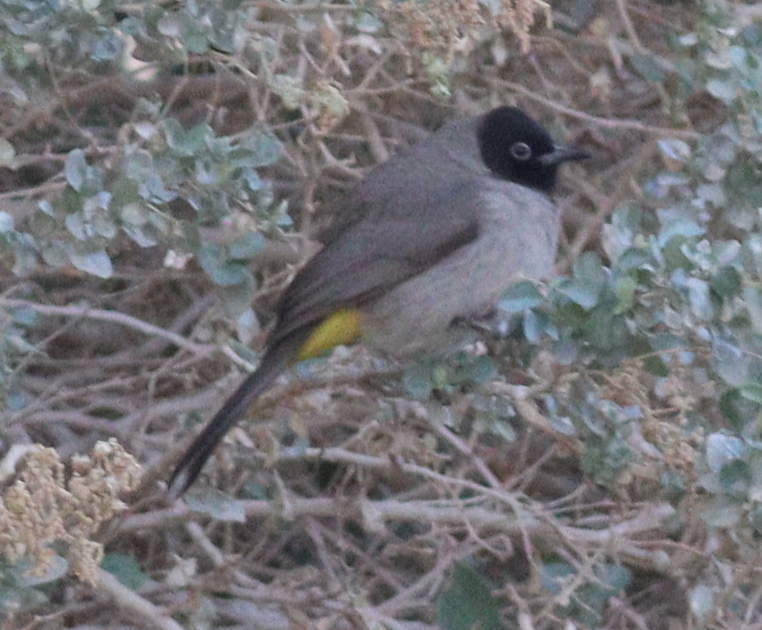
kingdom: Animalia
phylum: Chordata
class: Aves
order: Passeriformes
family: Pycnonotidae
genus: Pycnonotus
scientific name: Pycnonotus xanthopygos
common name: White-spectacled bulbul
